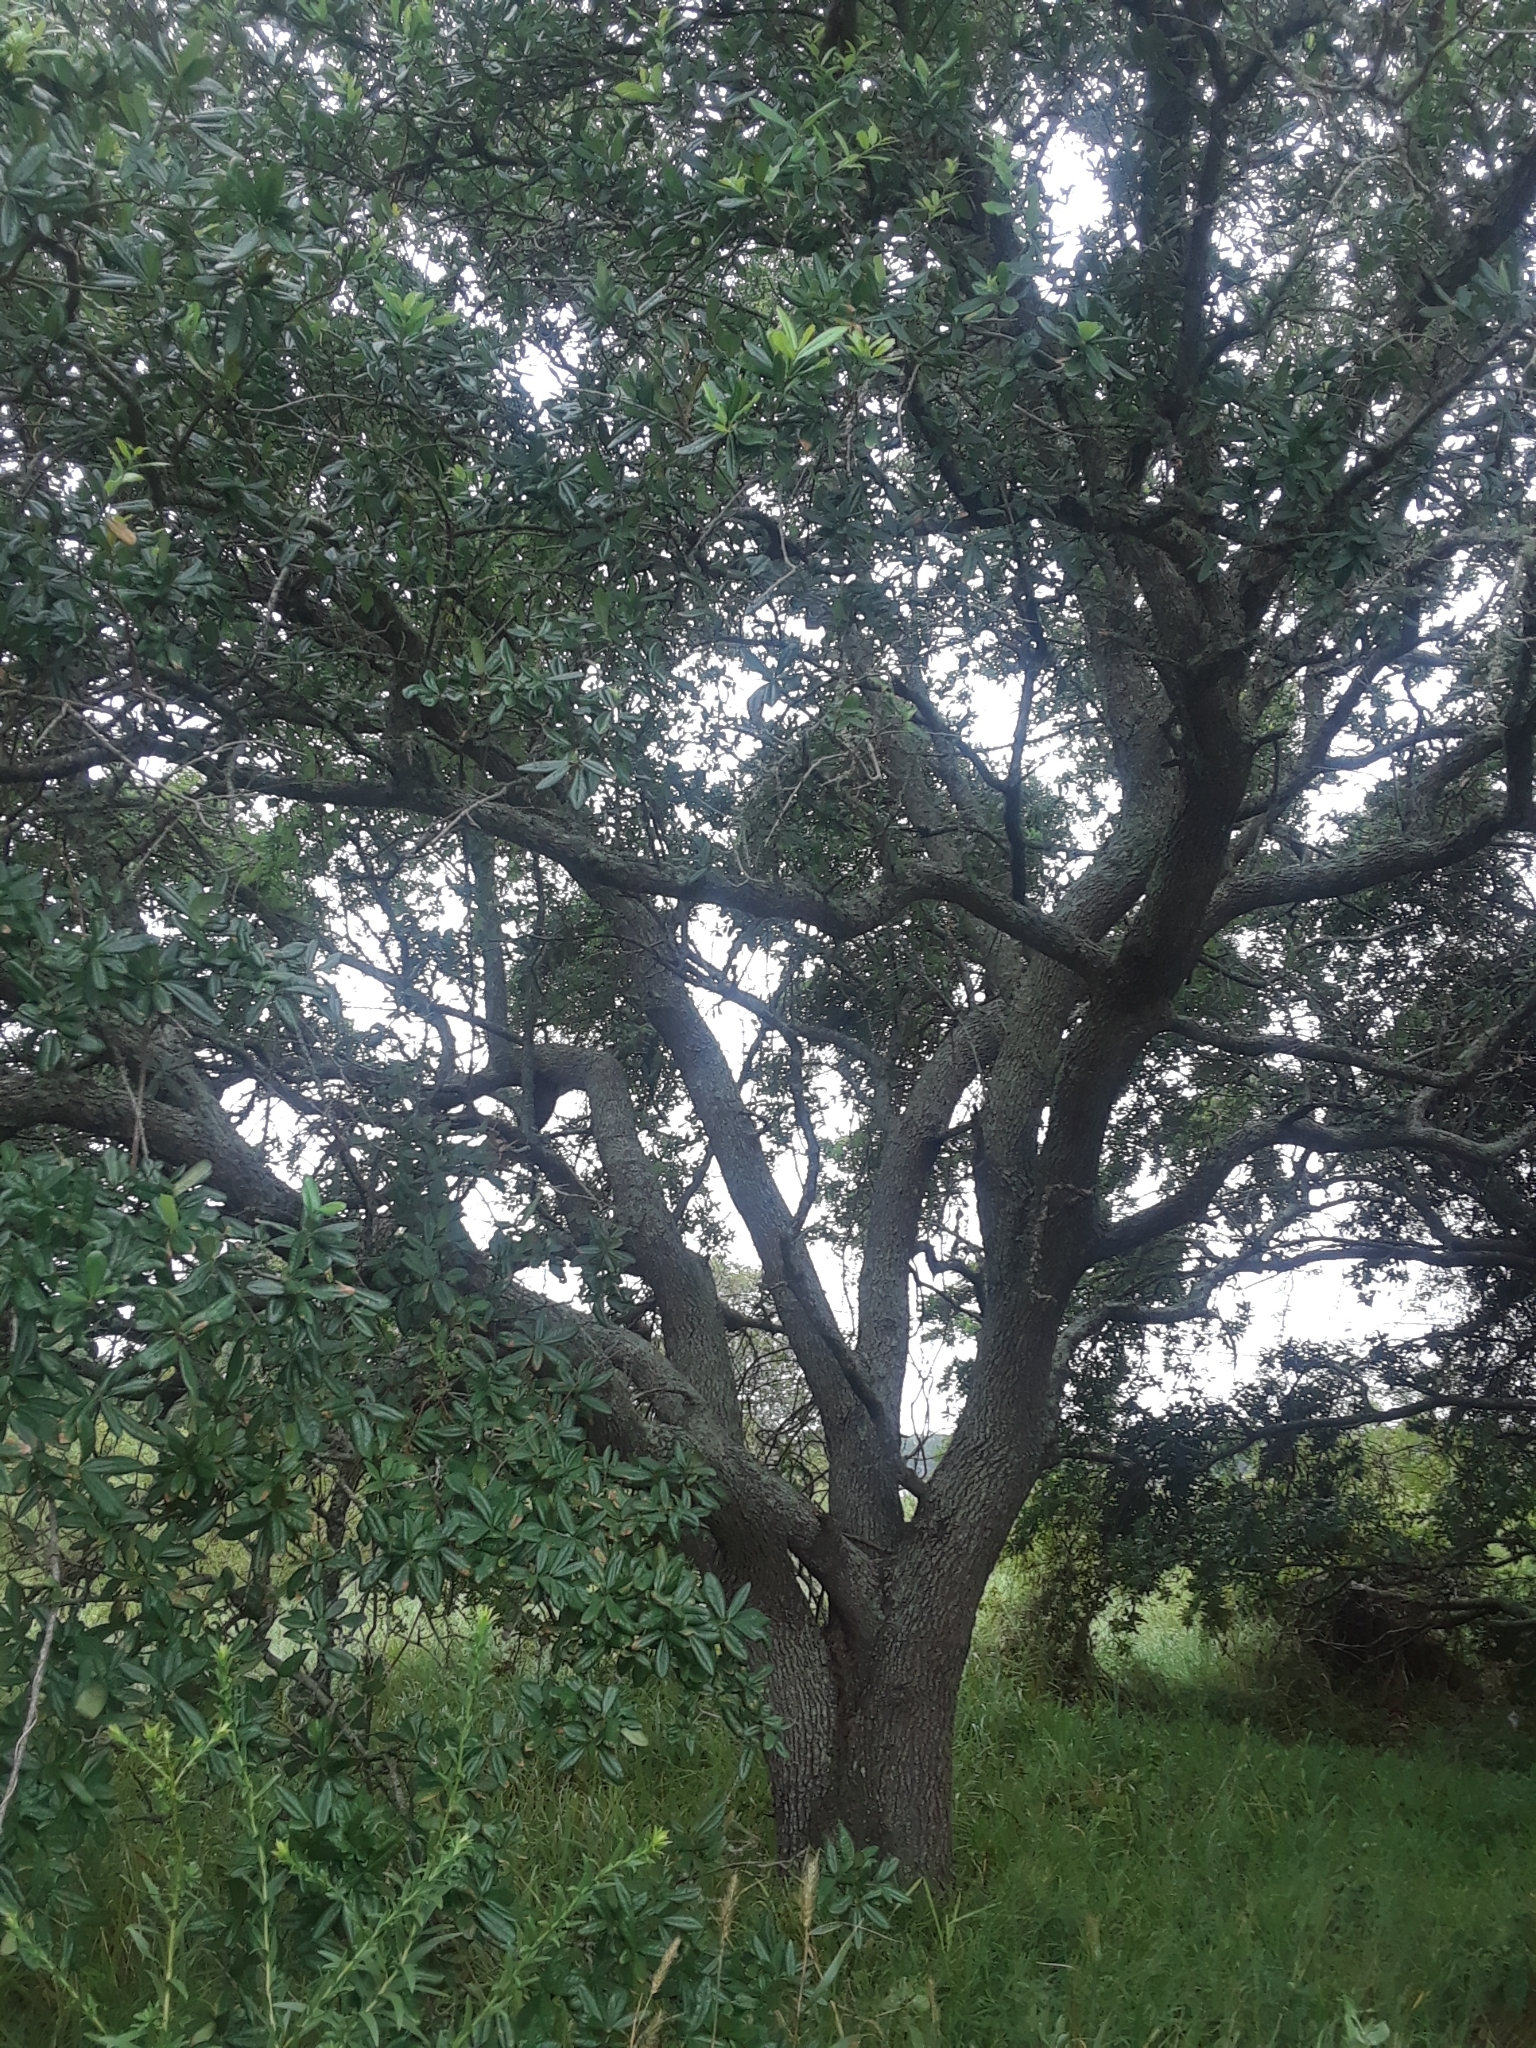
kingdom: Plantae
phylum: Tracheophyta
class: Magnoliopsida
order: Fagales
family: Fagaceae
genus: Quercus
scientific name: Quercus virginiana
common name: Southern live oak
